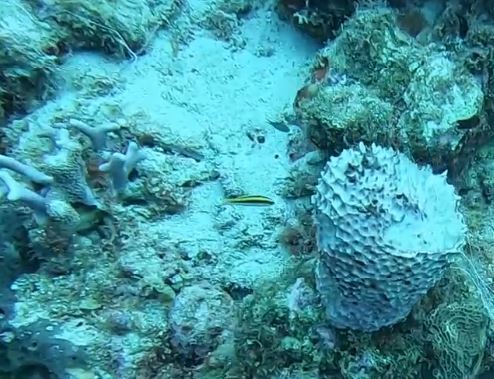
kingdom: Animalia
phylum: Chordata
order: Perciformes
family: Labridae
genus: Thalassoma
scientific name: Thalassoma bifasciatum
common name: Bluehead wrasse
